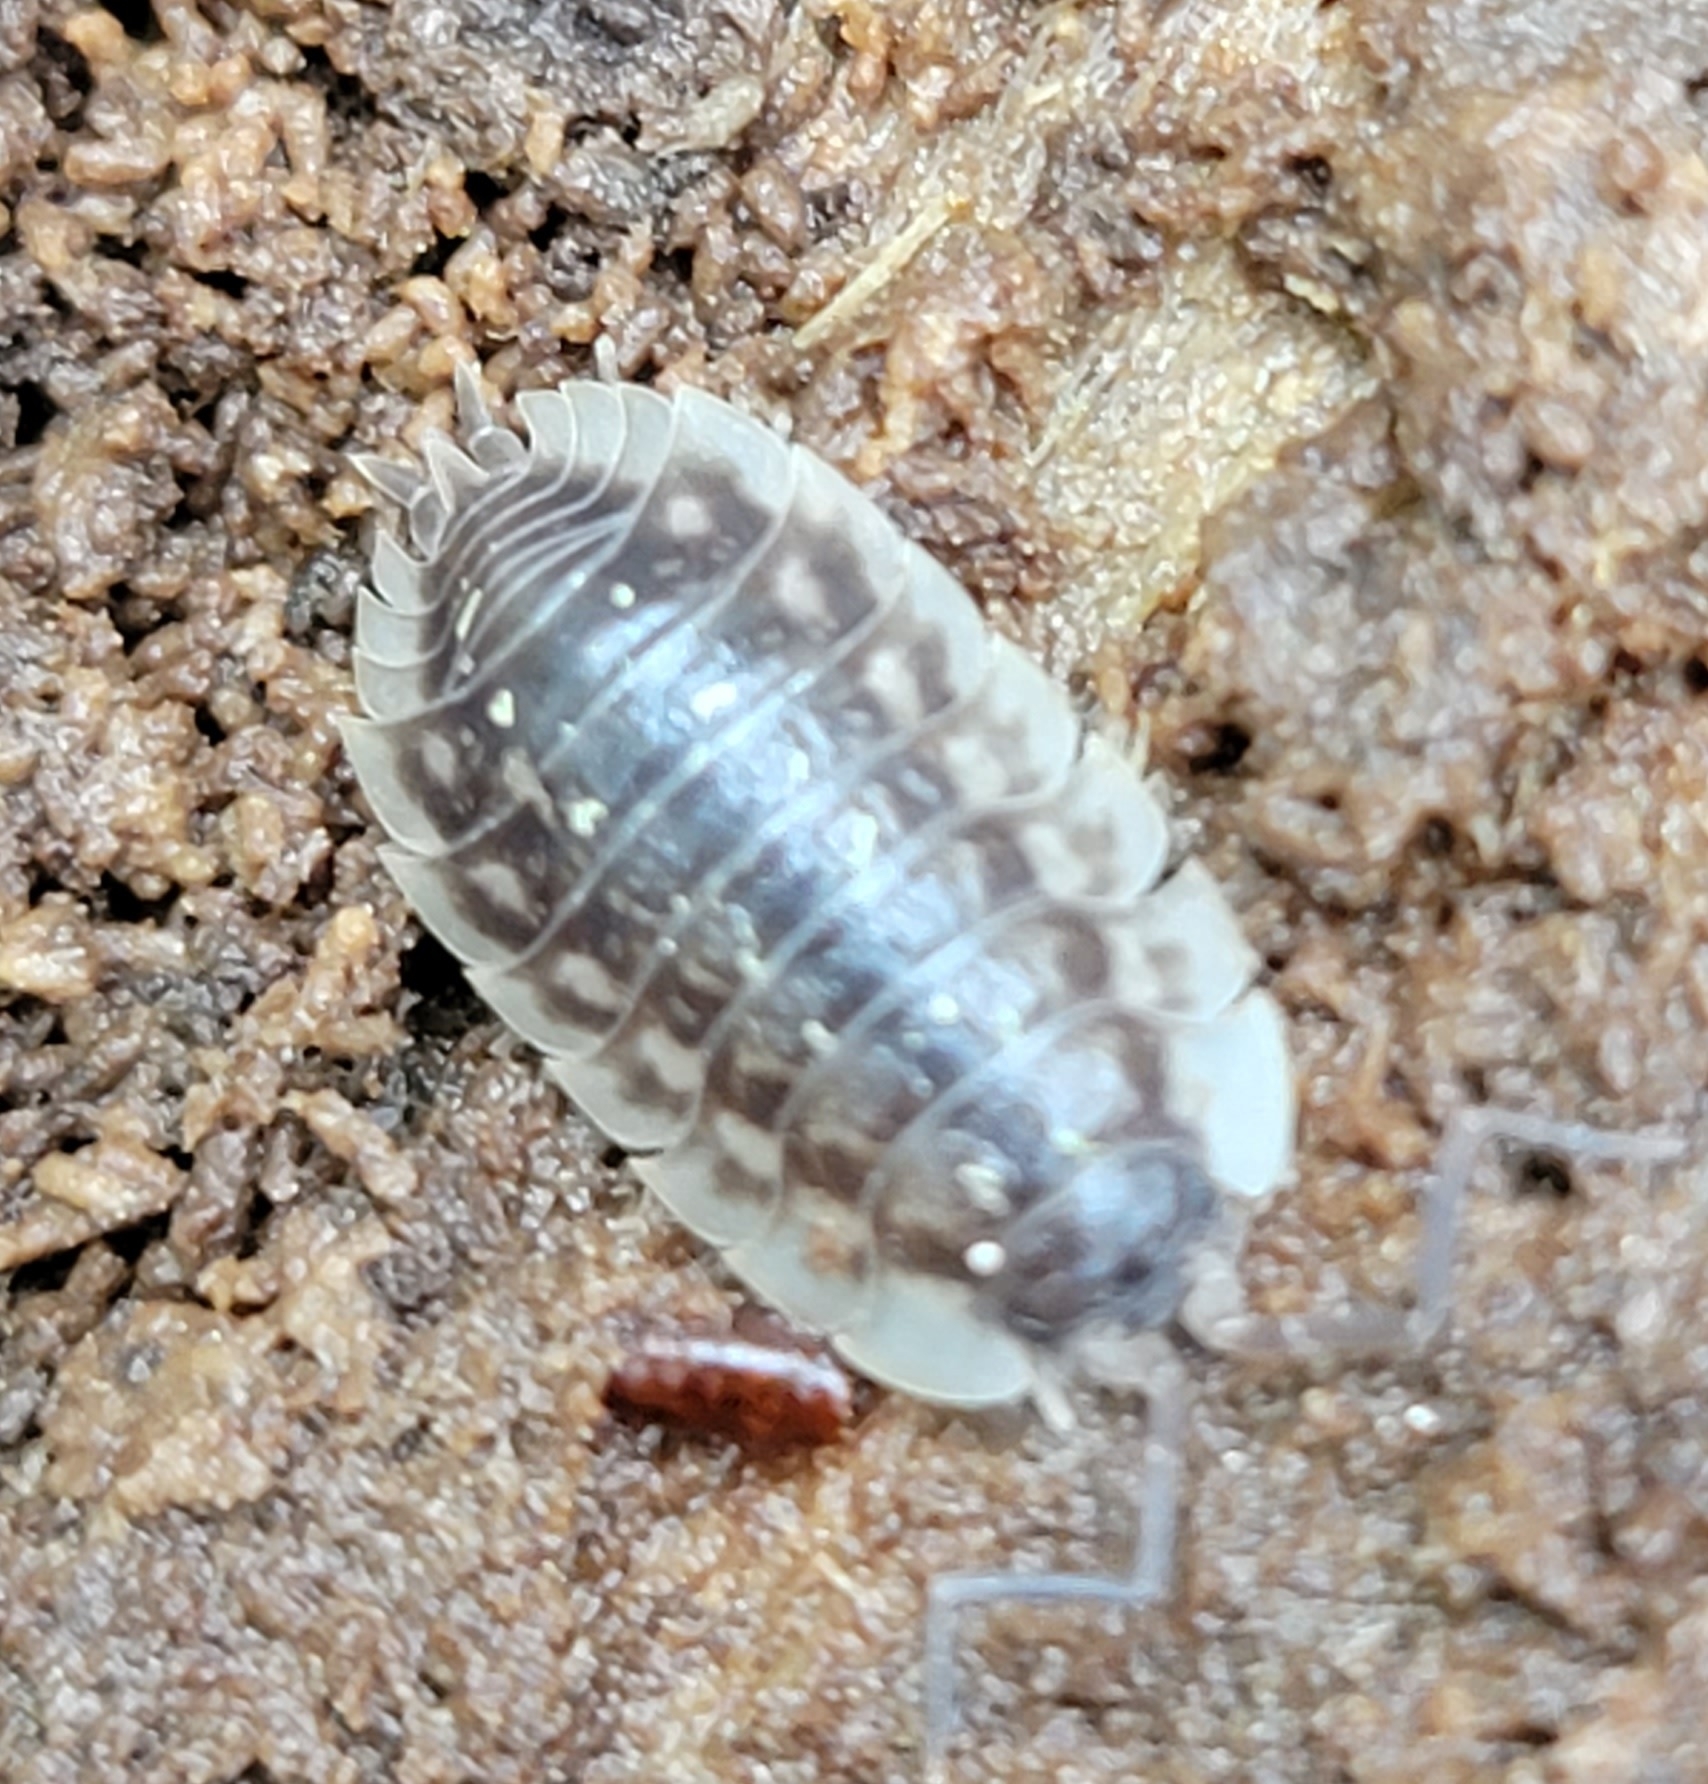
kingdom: Animalia
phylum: Arthropoda
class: Malacostraca
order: Isopoda
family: Oniscidae
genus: Oniscus
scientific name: Oniscus asellus
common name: Common shiny woodlouse
